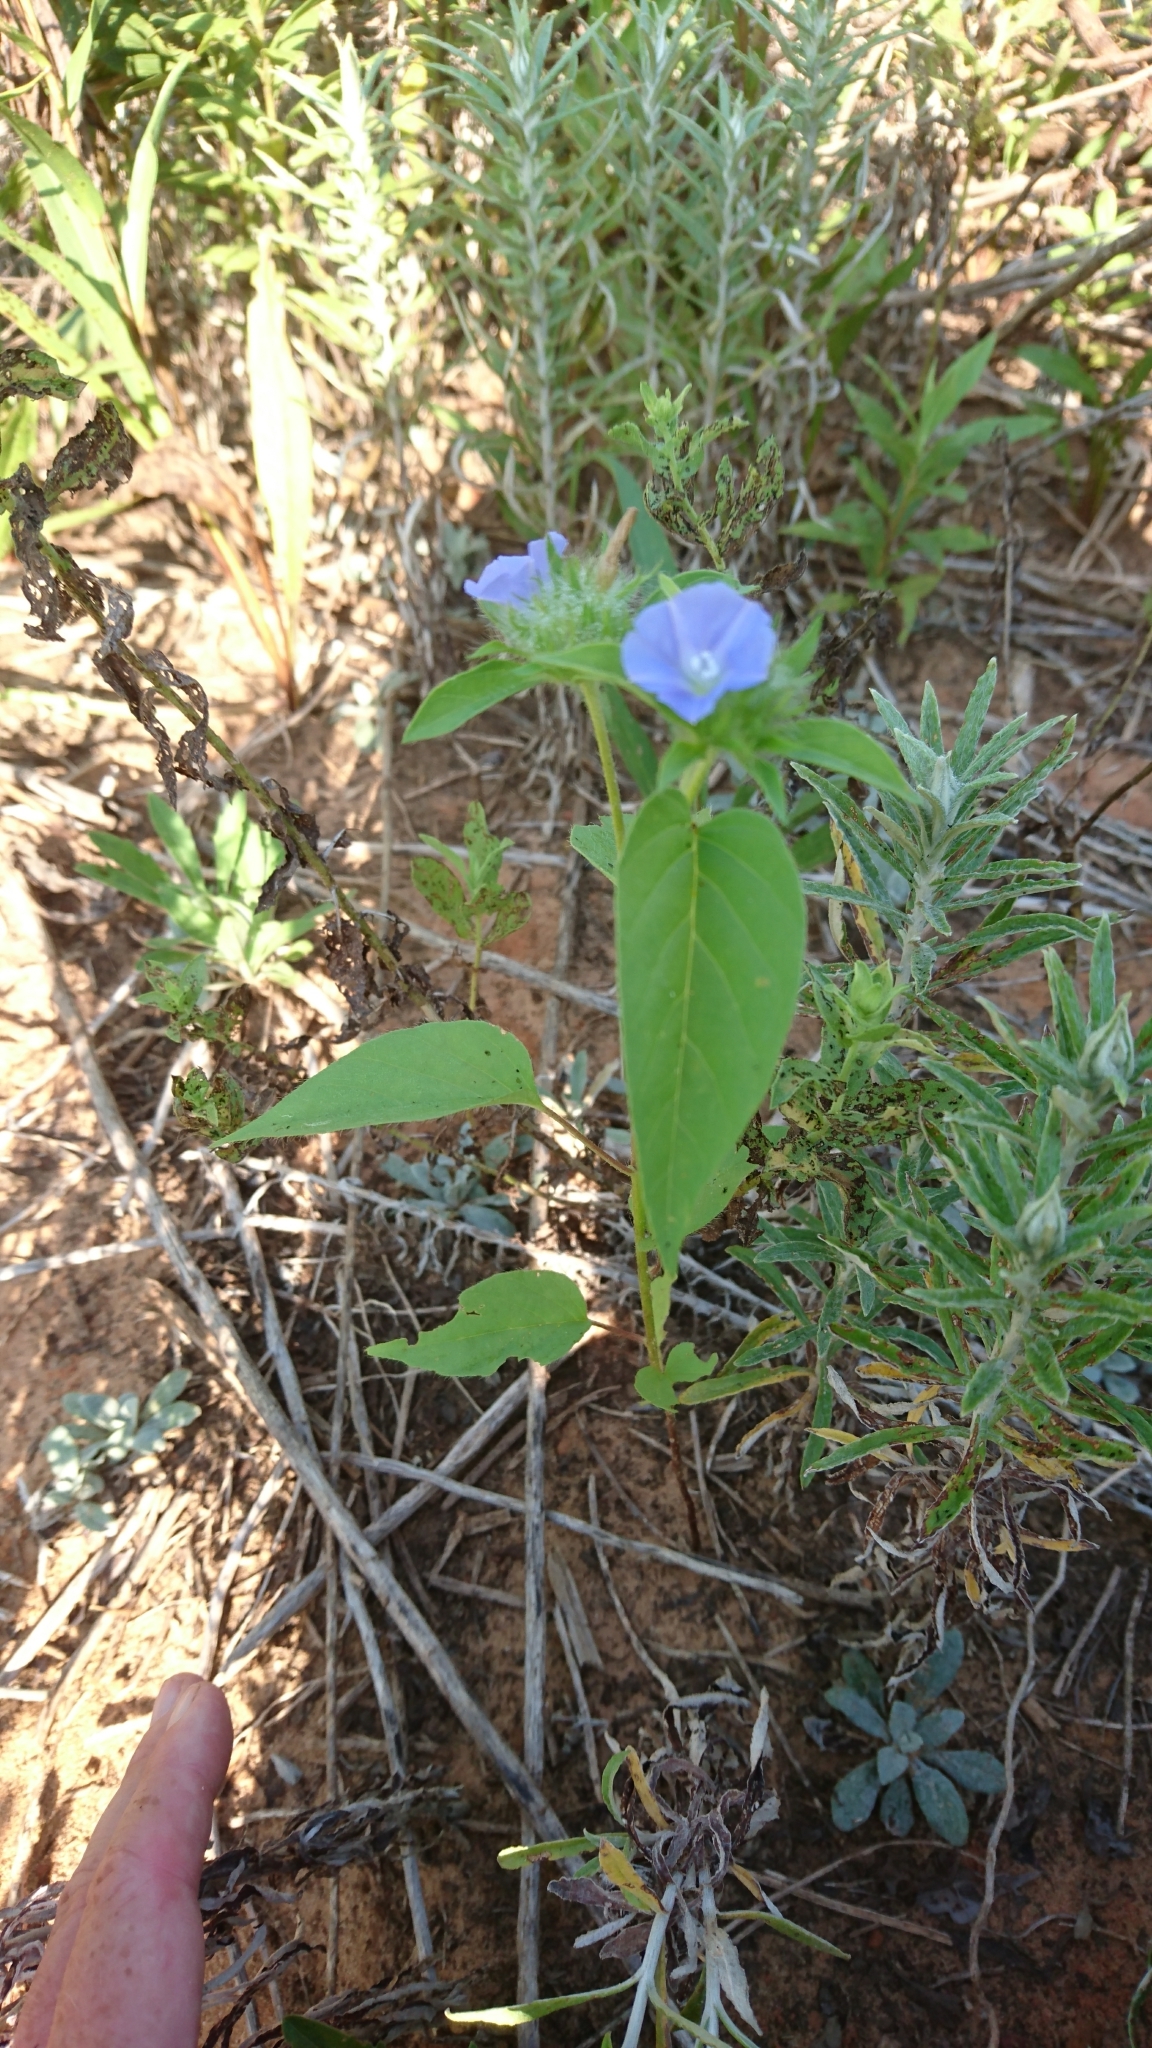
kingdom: Plantae
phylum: Tracheophyta
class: Magnoliopsida
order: Solanales
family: Convolvulaceae
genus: Jacquemontia
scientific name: Jacquemontia tamnifolia
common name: Hairy clustervine
